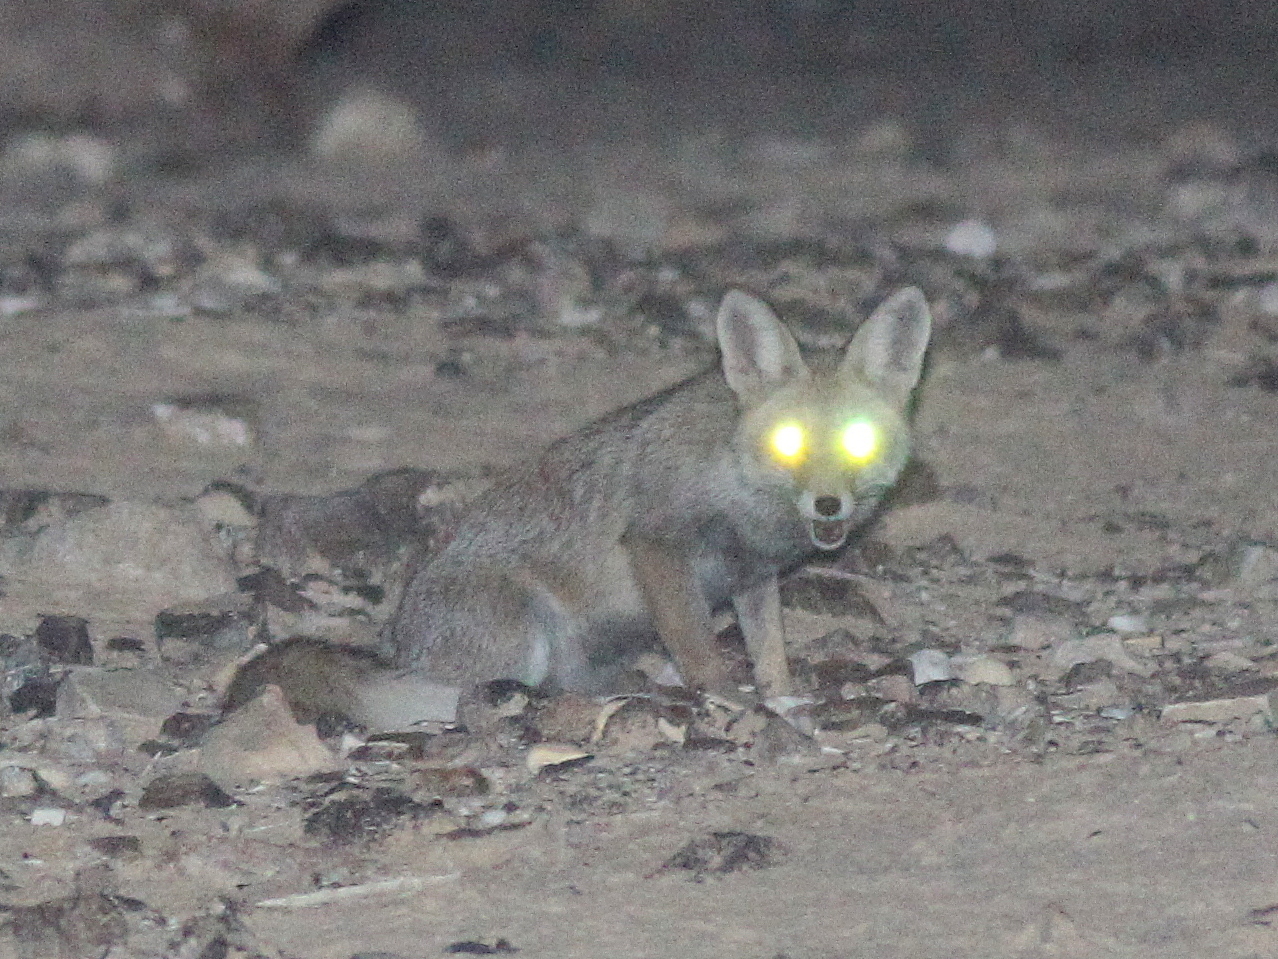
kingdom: Animalia
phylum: Chordata
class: Mammalia
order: Carnivora
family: Canidae
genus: Vulpes
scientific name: Vulpes vulpes
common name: Red fox
